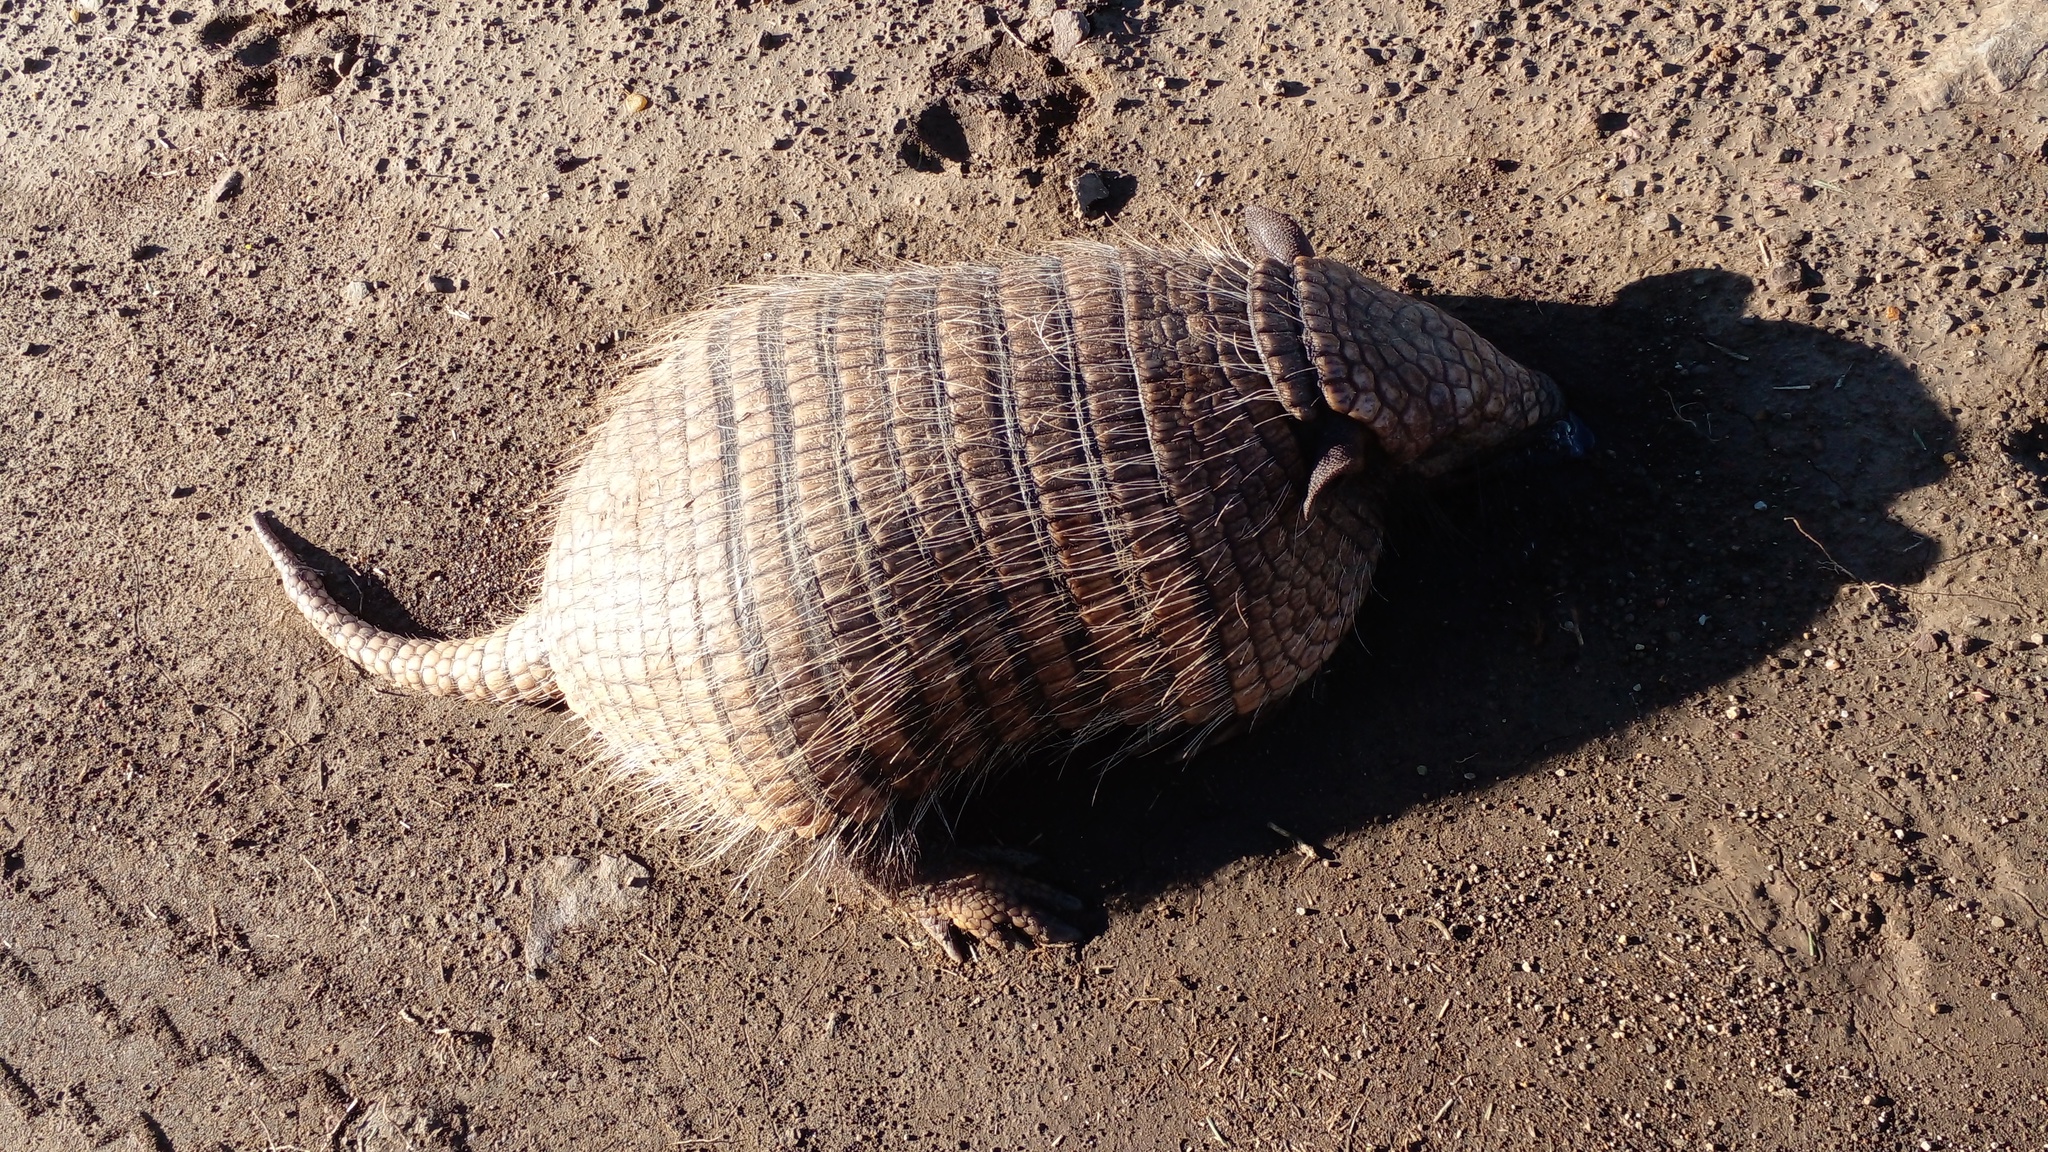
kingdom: Animalia
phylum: Chordata
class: Mammalia
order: Cingulata
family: Dasypodidae
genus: Euphractus
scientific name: Euphractus sexcinctus
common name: Six-banded armadillo
